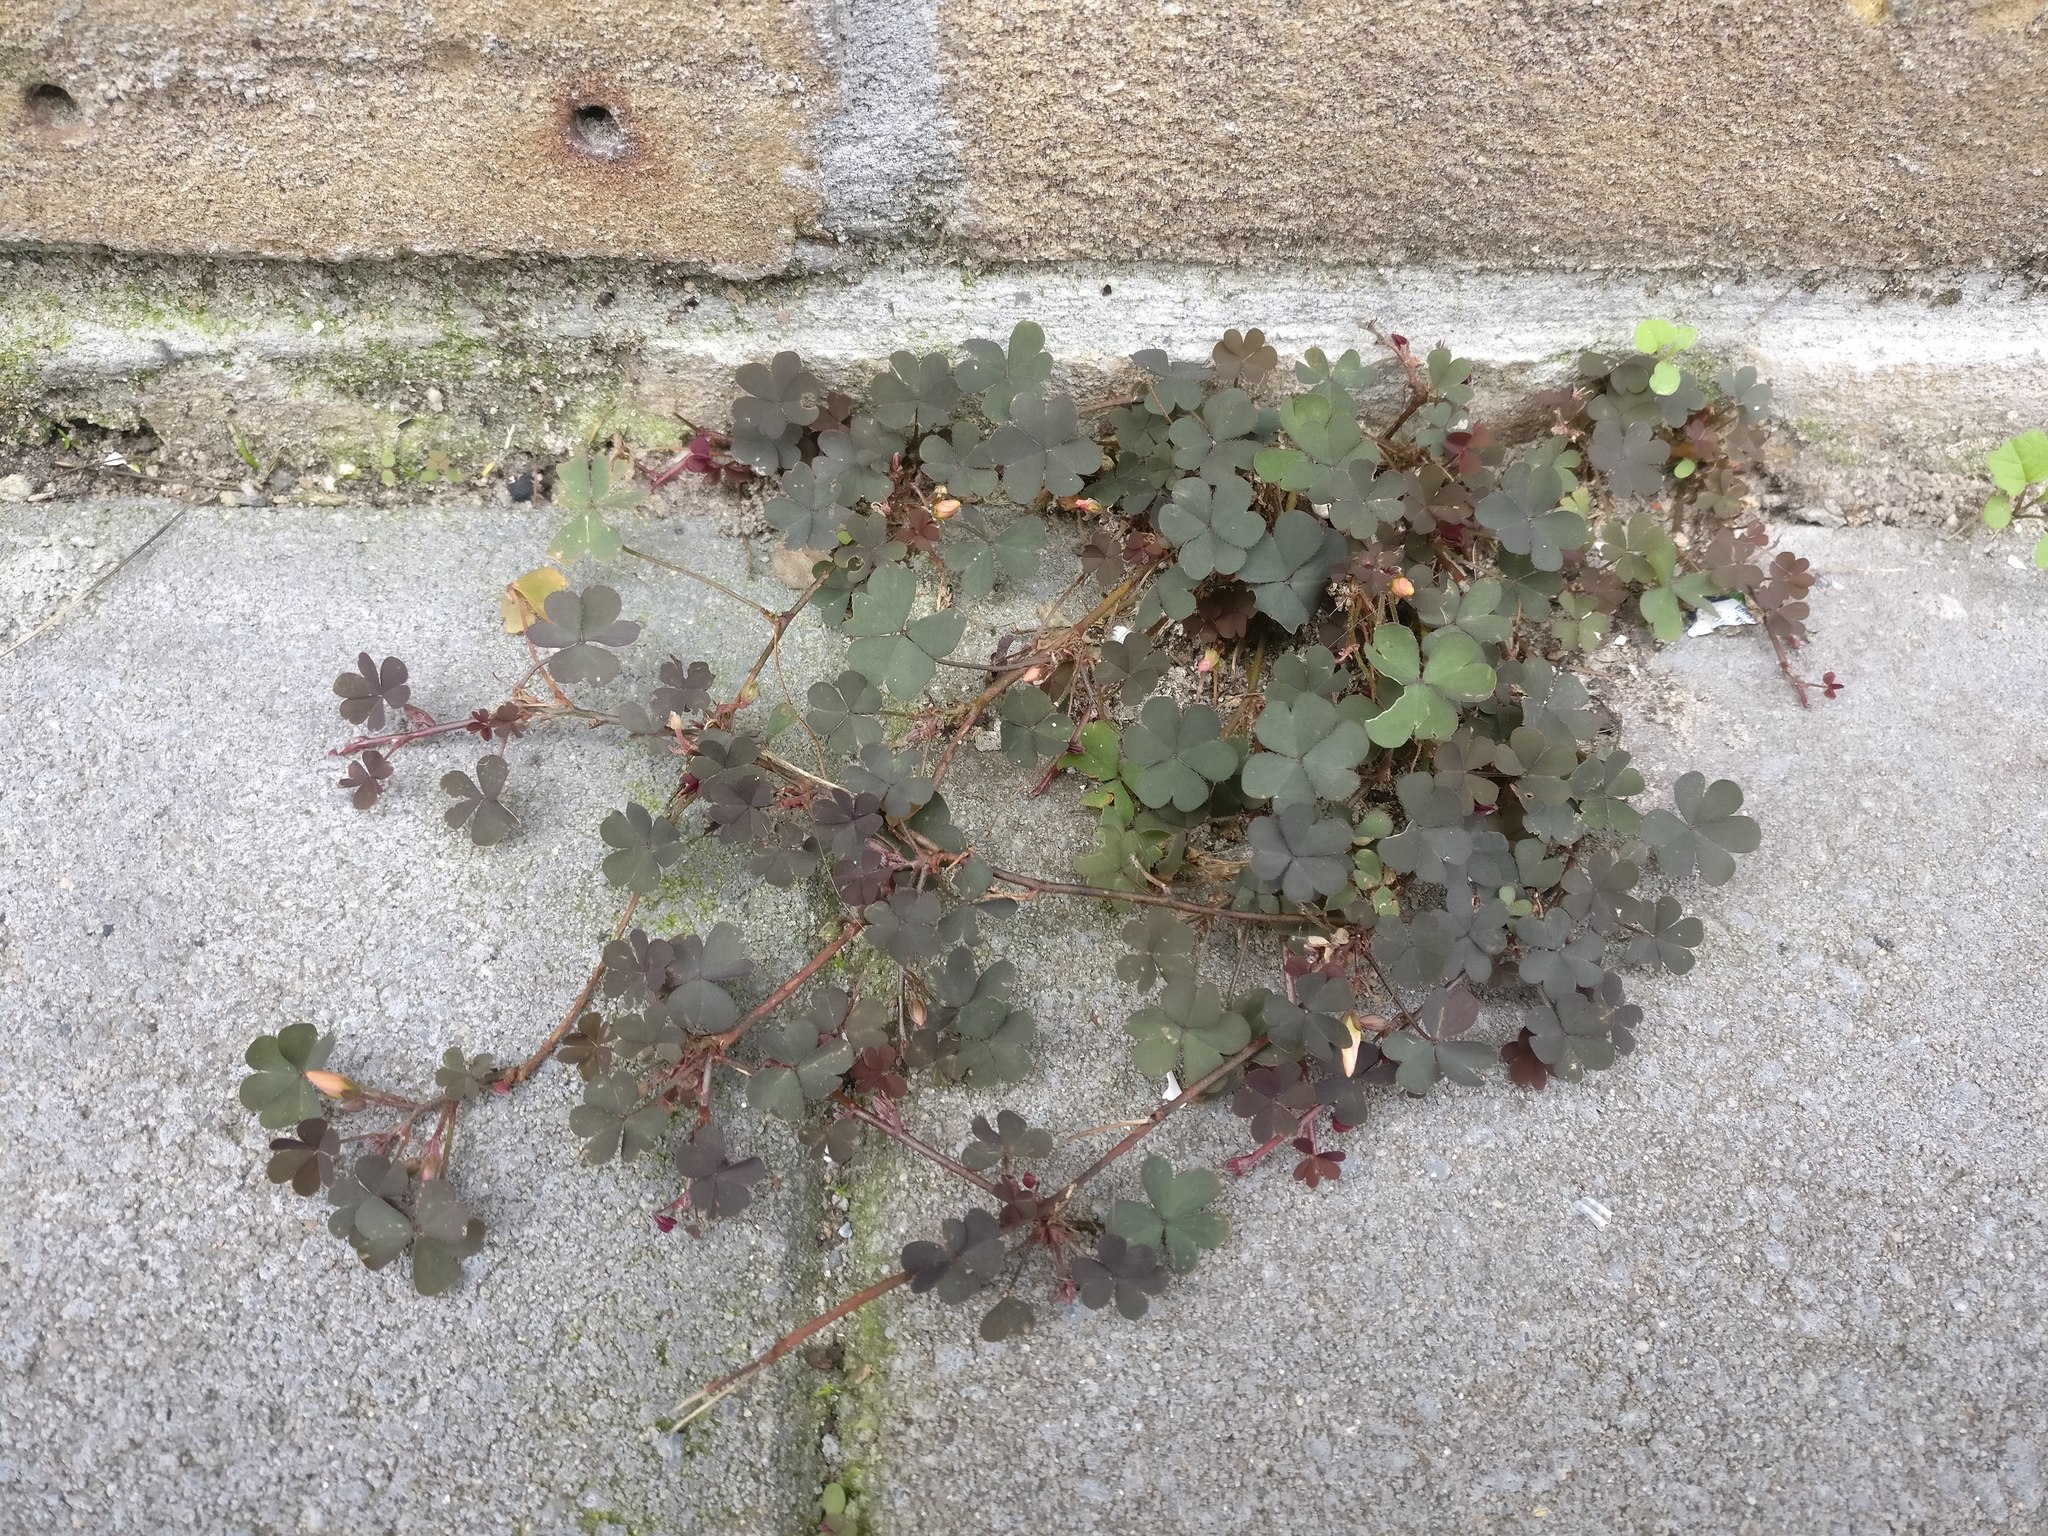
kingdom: Plantae
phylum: Tracheophyta
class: Magnoliopsida
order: Oxalidales
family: Oxalidaceae
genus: Oxalis
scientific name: Oxalis corniculata
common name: Procumbent yellow-sorrel
